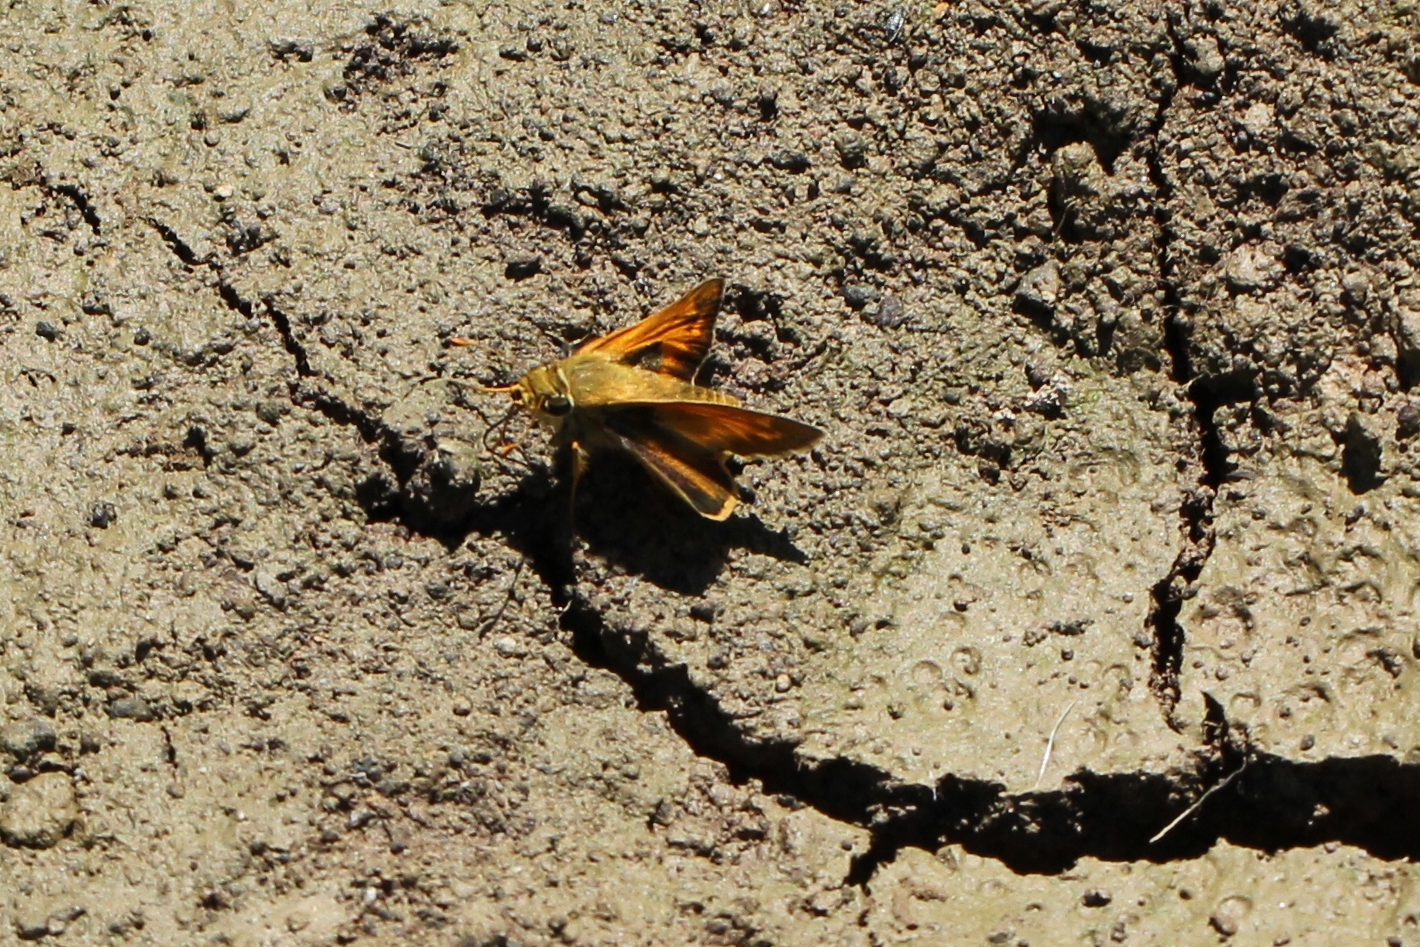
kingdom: Animalia
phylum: Arthropoda
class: Insecta
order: Lepidoptera
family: Hesperiidae
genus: Atalopedes
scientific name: Atalopedes
